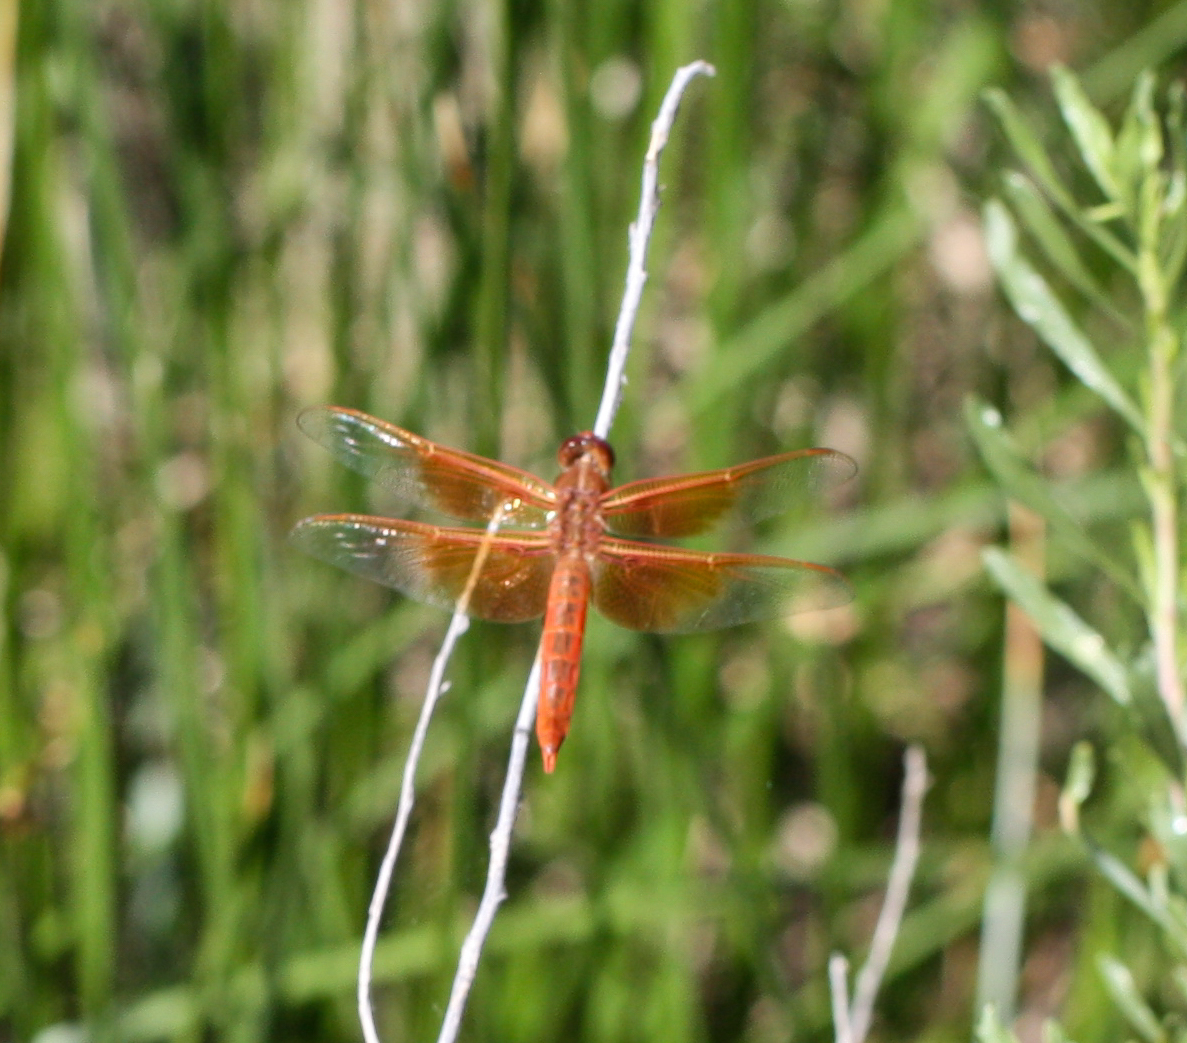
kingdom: Animalia
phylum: Arthropoda
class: Insecta
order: Odonata
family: Libellulidae
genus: Libellula
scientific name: Libellula saturata
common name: Flame skimmer
